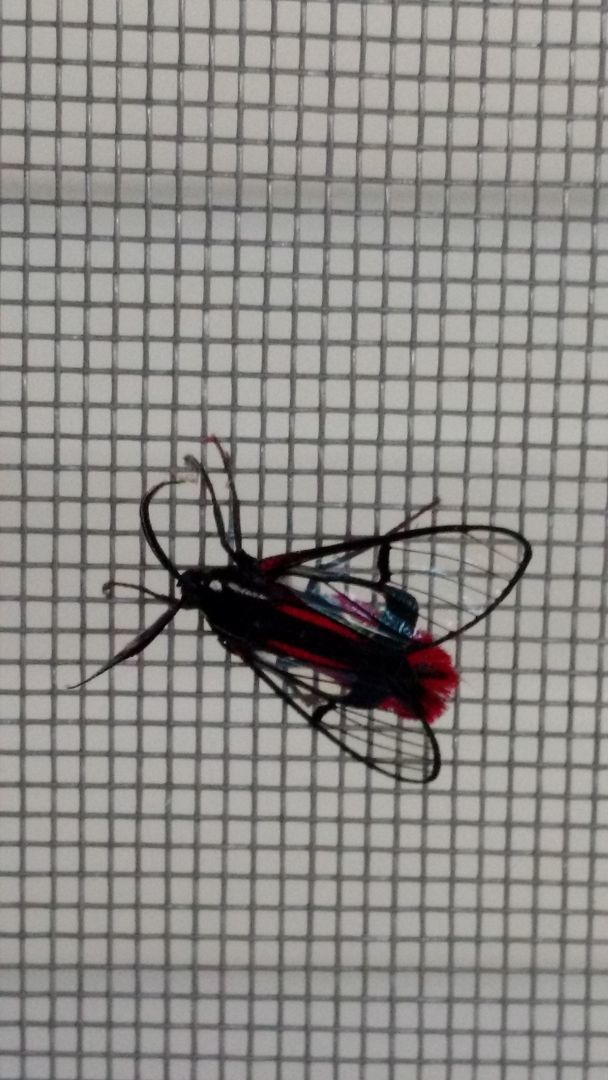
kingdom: Animalia
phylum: Arthropoda
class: Insecta
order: Lepidoptera
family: Erebidae
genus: Dinia
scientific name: Dinia mena
